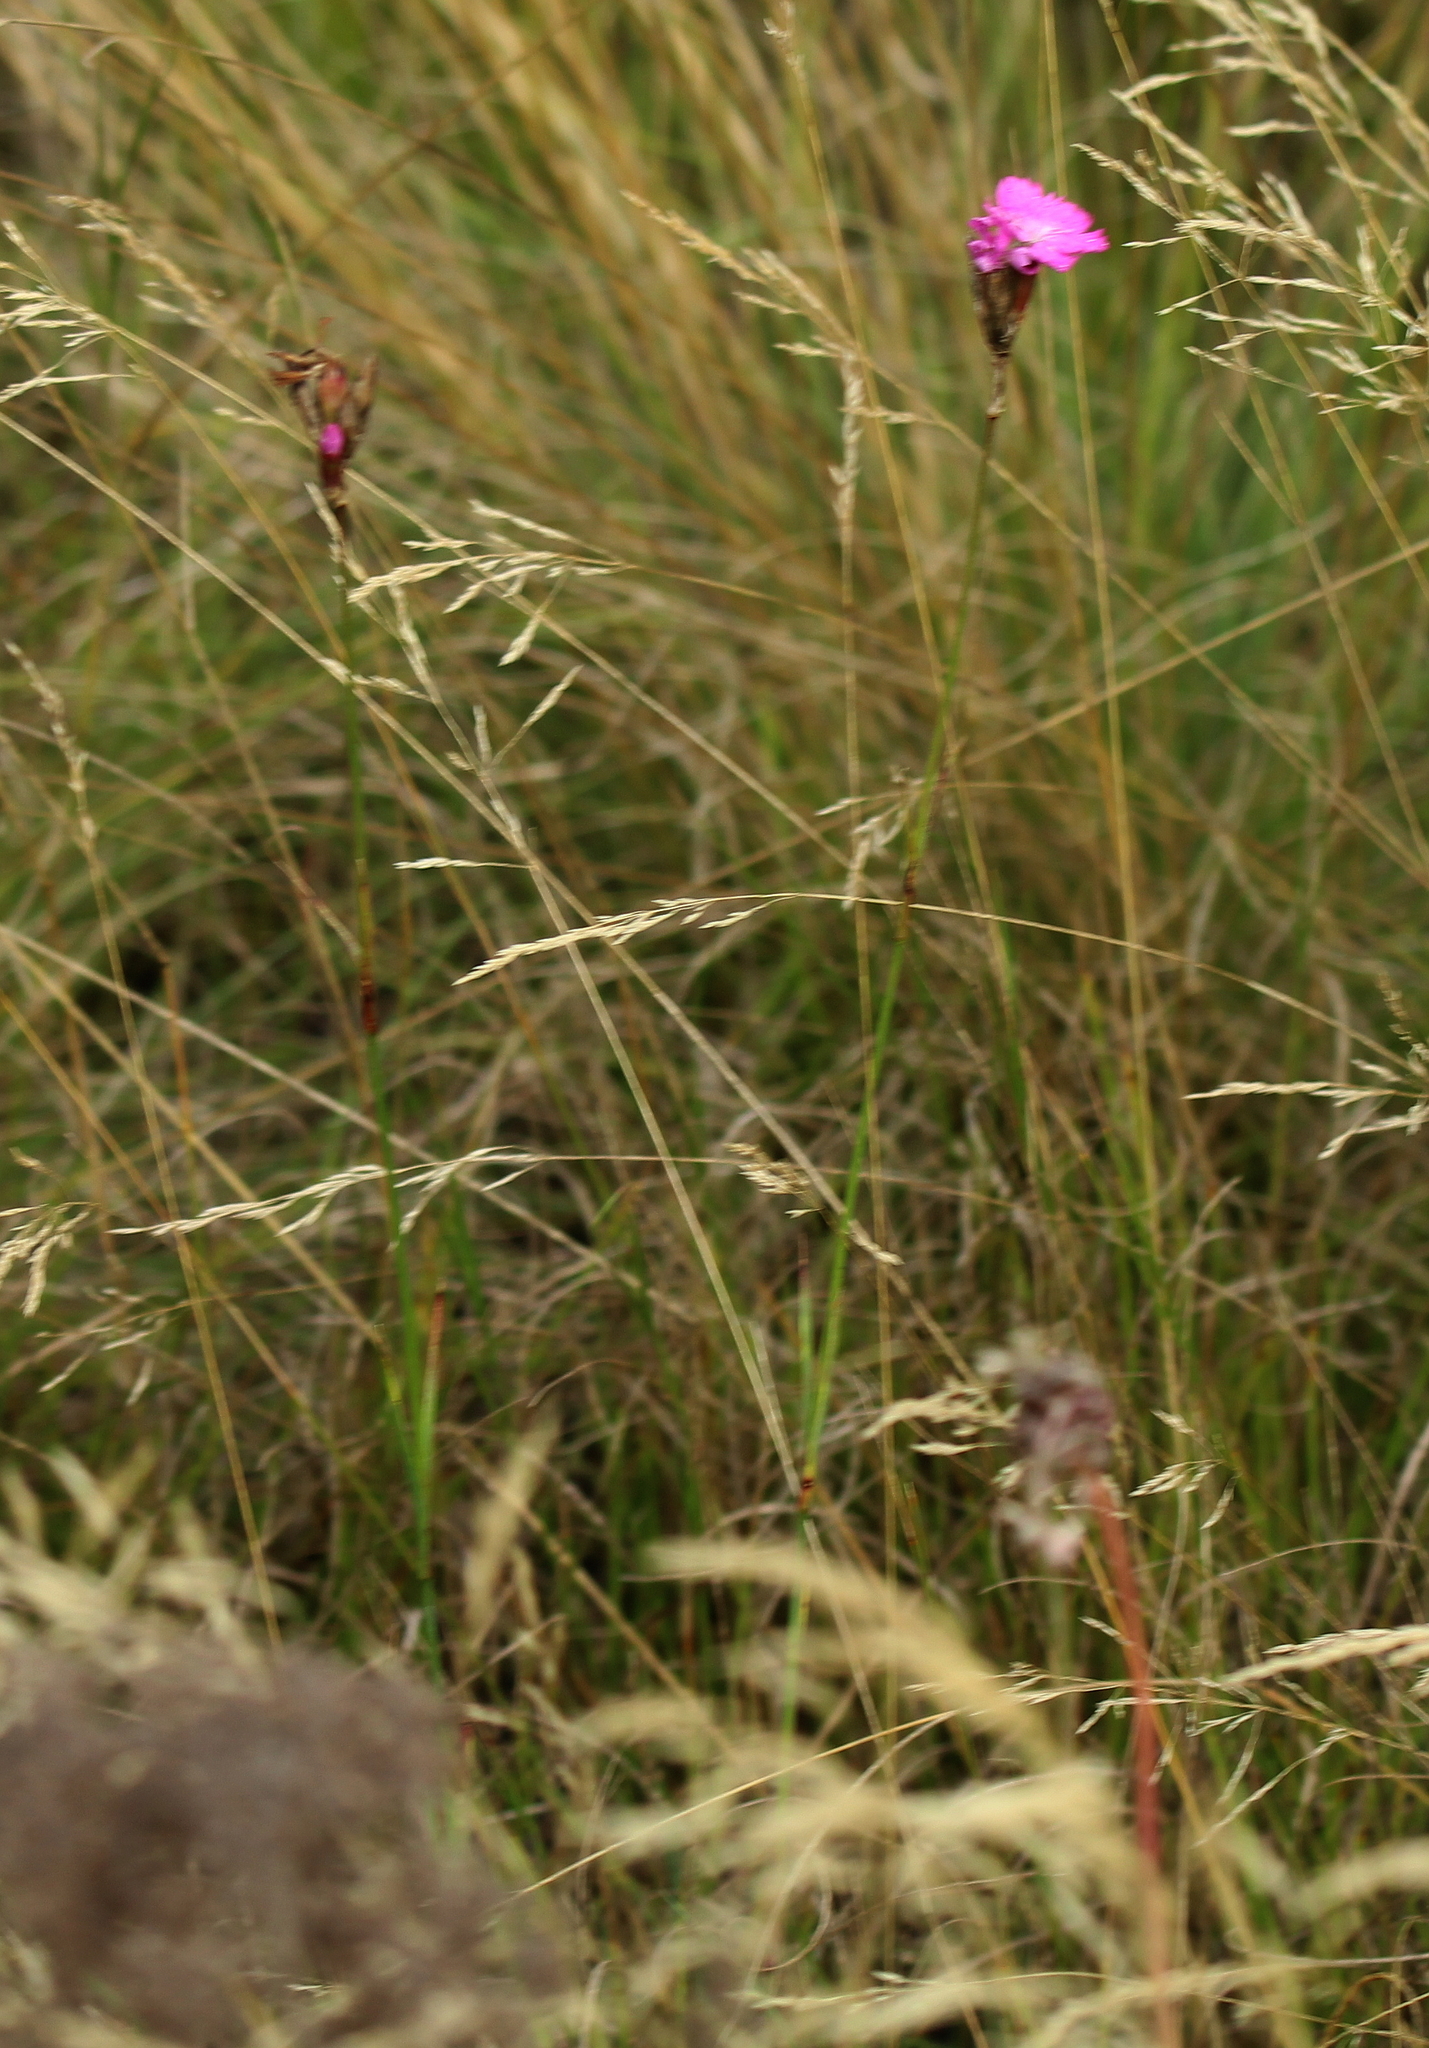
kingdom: Plantae
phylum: Tracheophyta
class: Magnoliopsida
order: Caryophyllales
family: Caryophyllaceae
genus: Dianthus
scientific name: Dianthus borbasii
